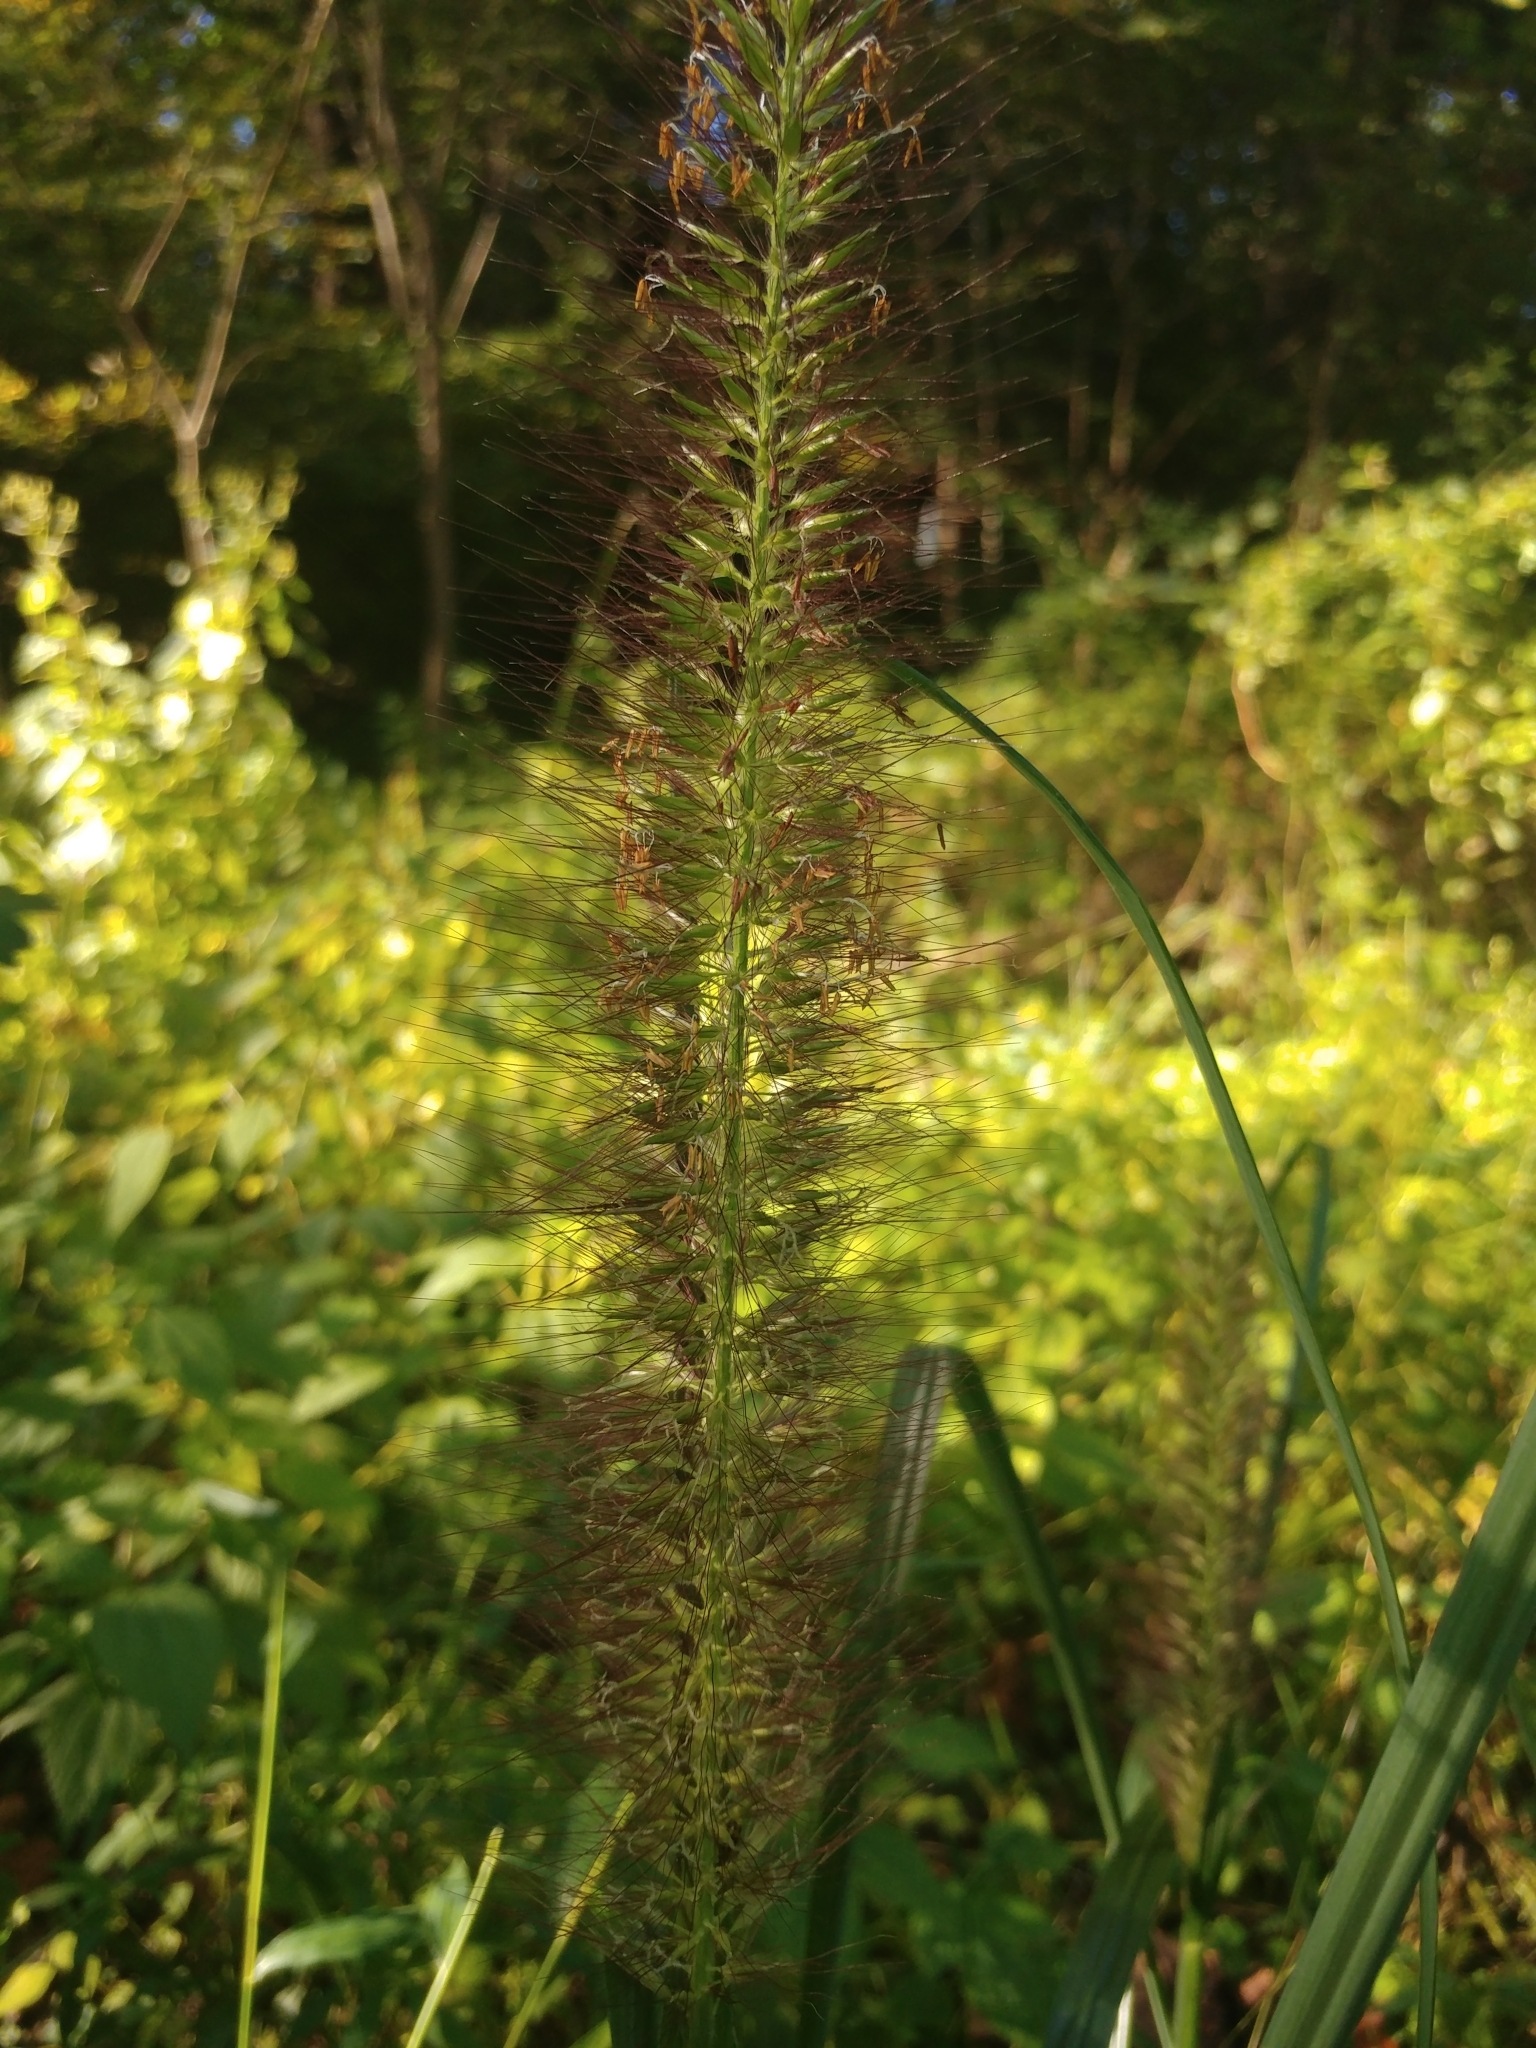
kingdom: Plantae
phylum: Tracheophyta
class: Liliopsida
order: Poales
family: Poaceae
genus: Cenchrus
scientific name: Cenchrus alopecuroides
